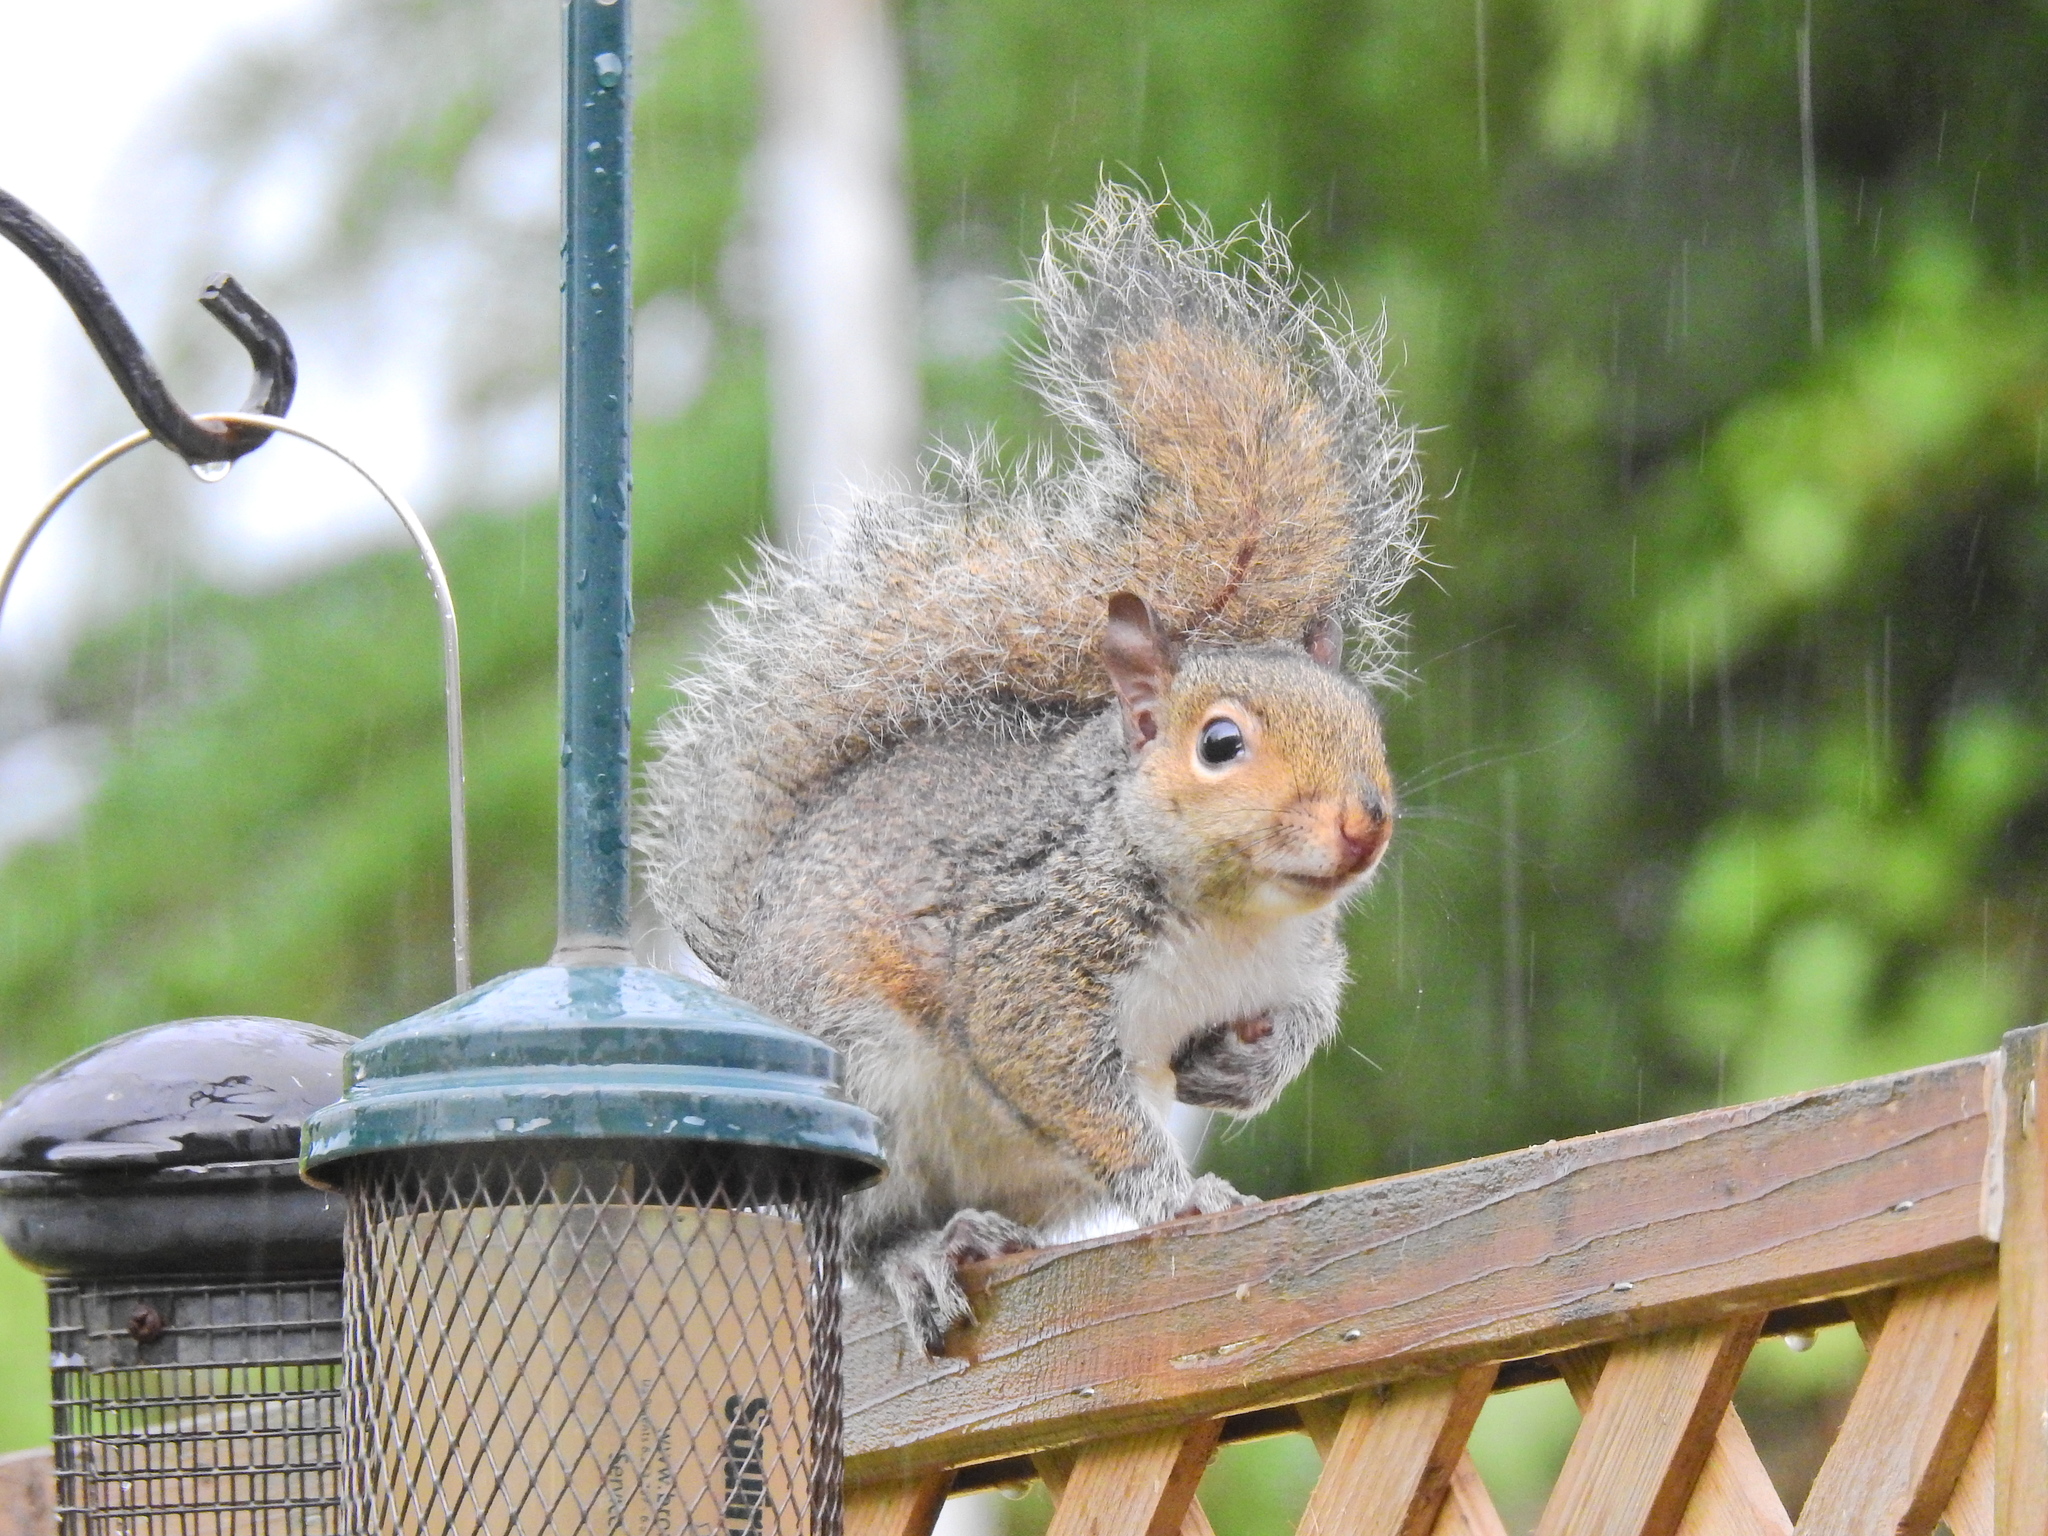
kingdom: Animalia
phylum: Chordata
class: Mammalia
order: Rodentia
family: Sciuridae
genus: Sciurus
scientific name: Sciurus carolinensis
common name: Eastern gray squirrel
